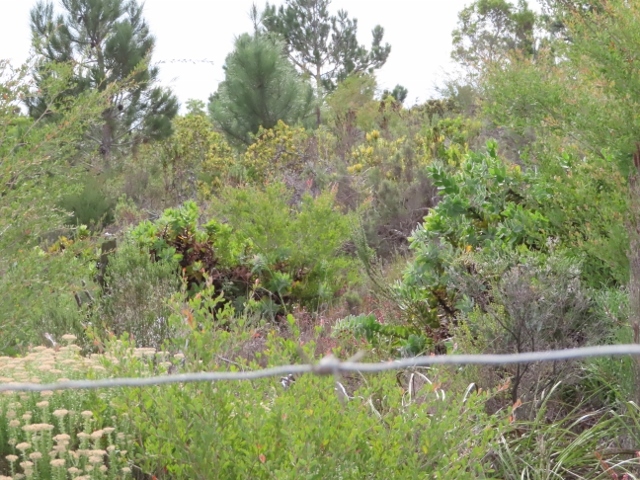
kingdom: Plantae
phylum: Tracheophyta
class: Magnoliopsida
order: Proteales
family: Proteaceae
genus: Leucospermum
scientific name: Leucospermum cordifolium
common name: Red pincushion-protea
